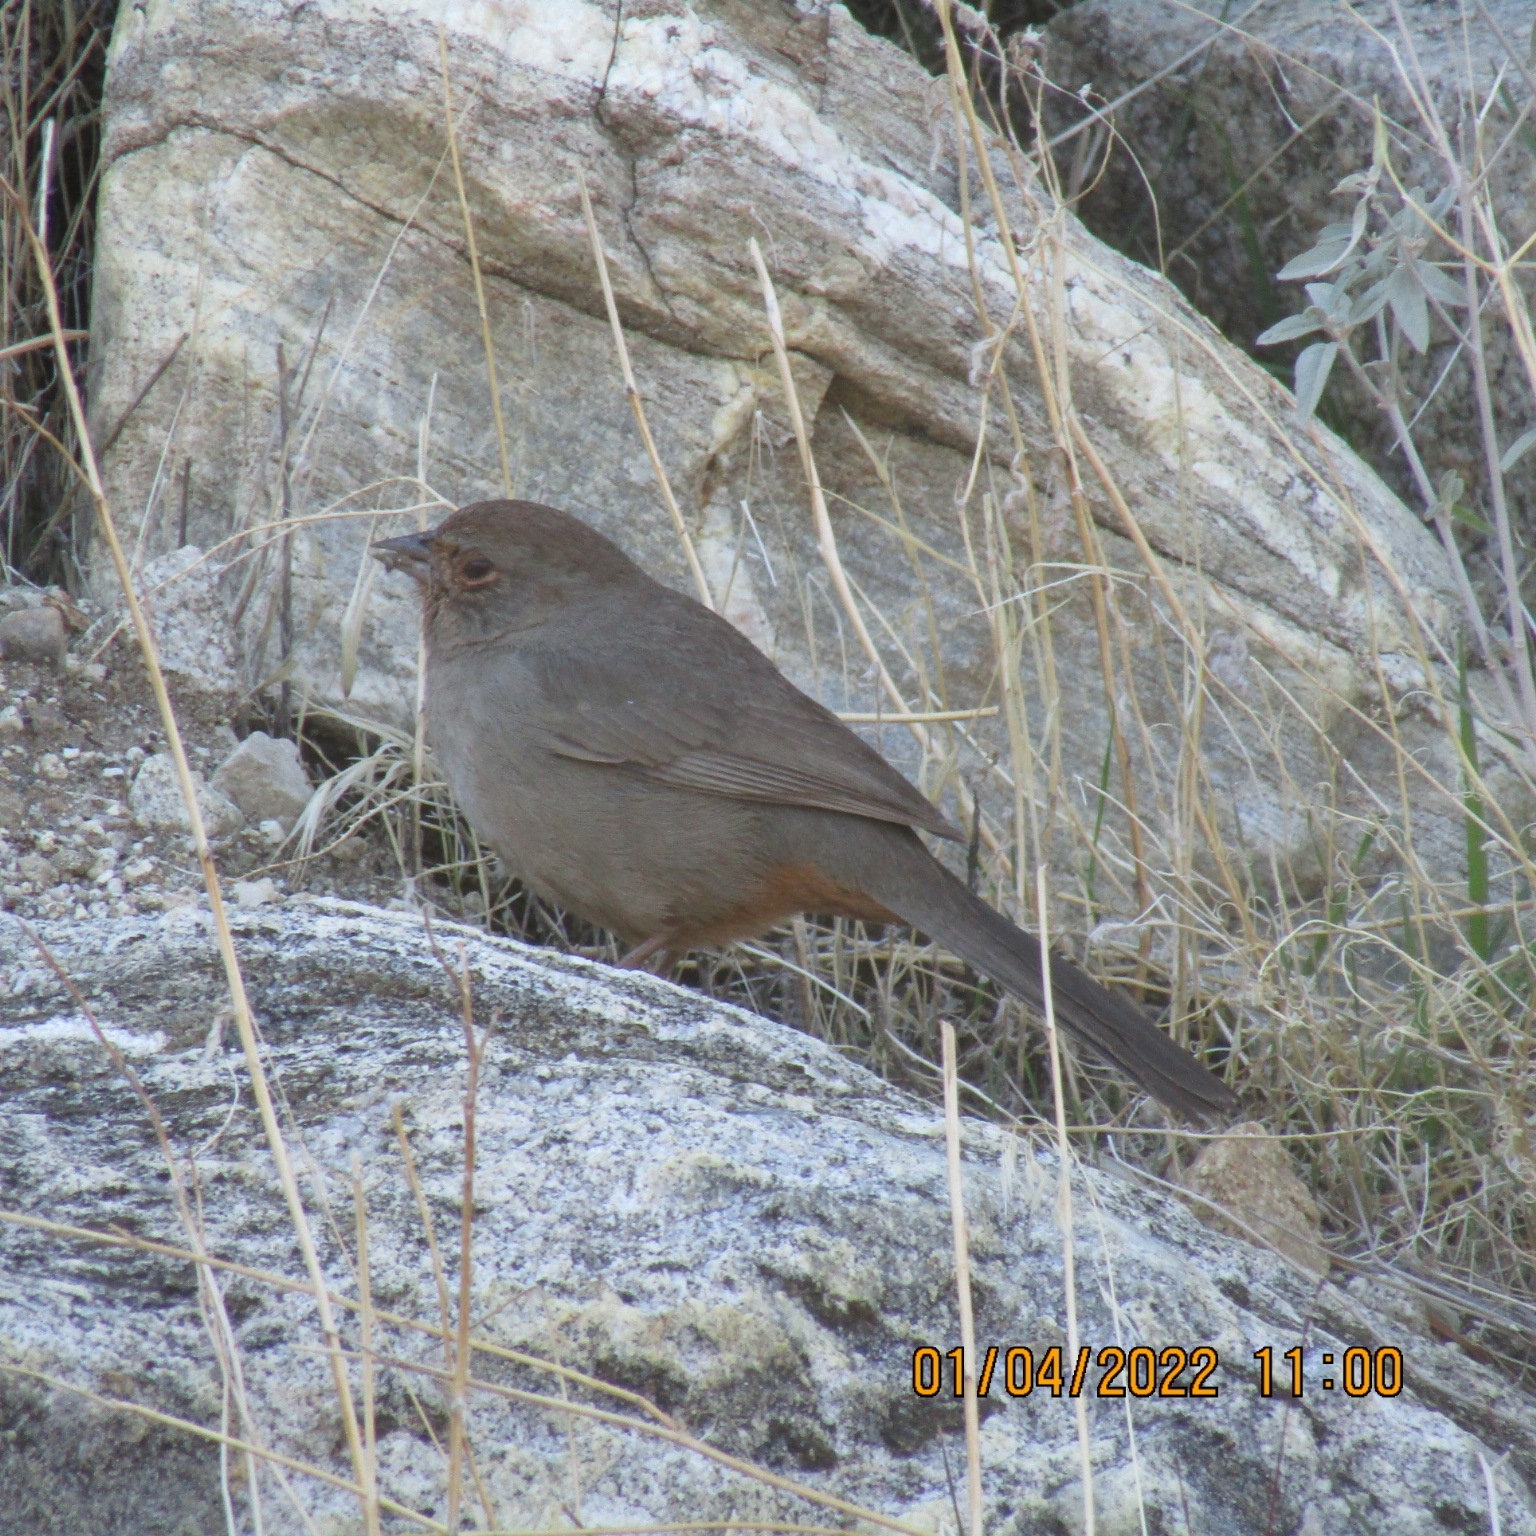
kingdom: Animalia
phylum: Chordata
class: Aves
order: Passeriformes
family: Passerellidae
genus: Melozone
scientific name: Melozone crissalis
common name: California towhee
